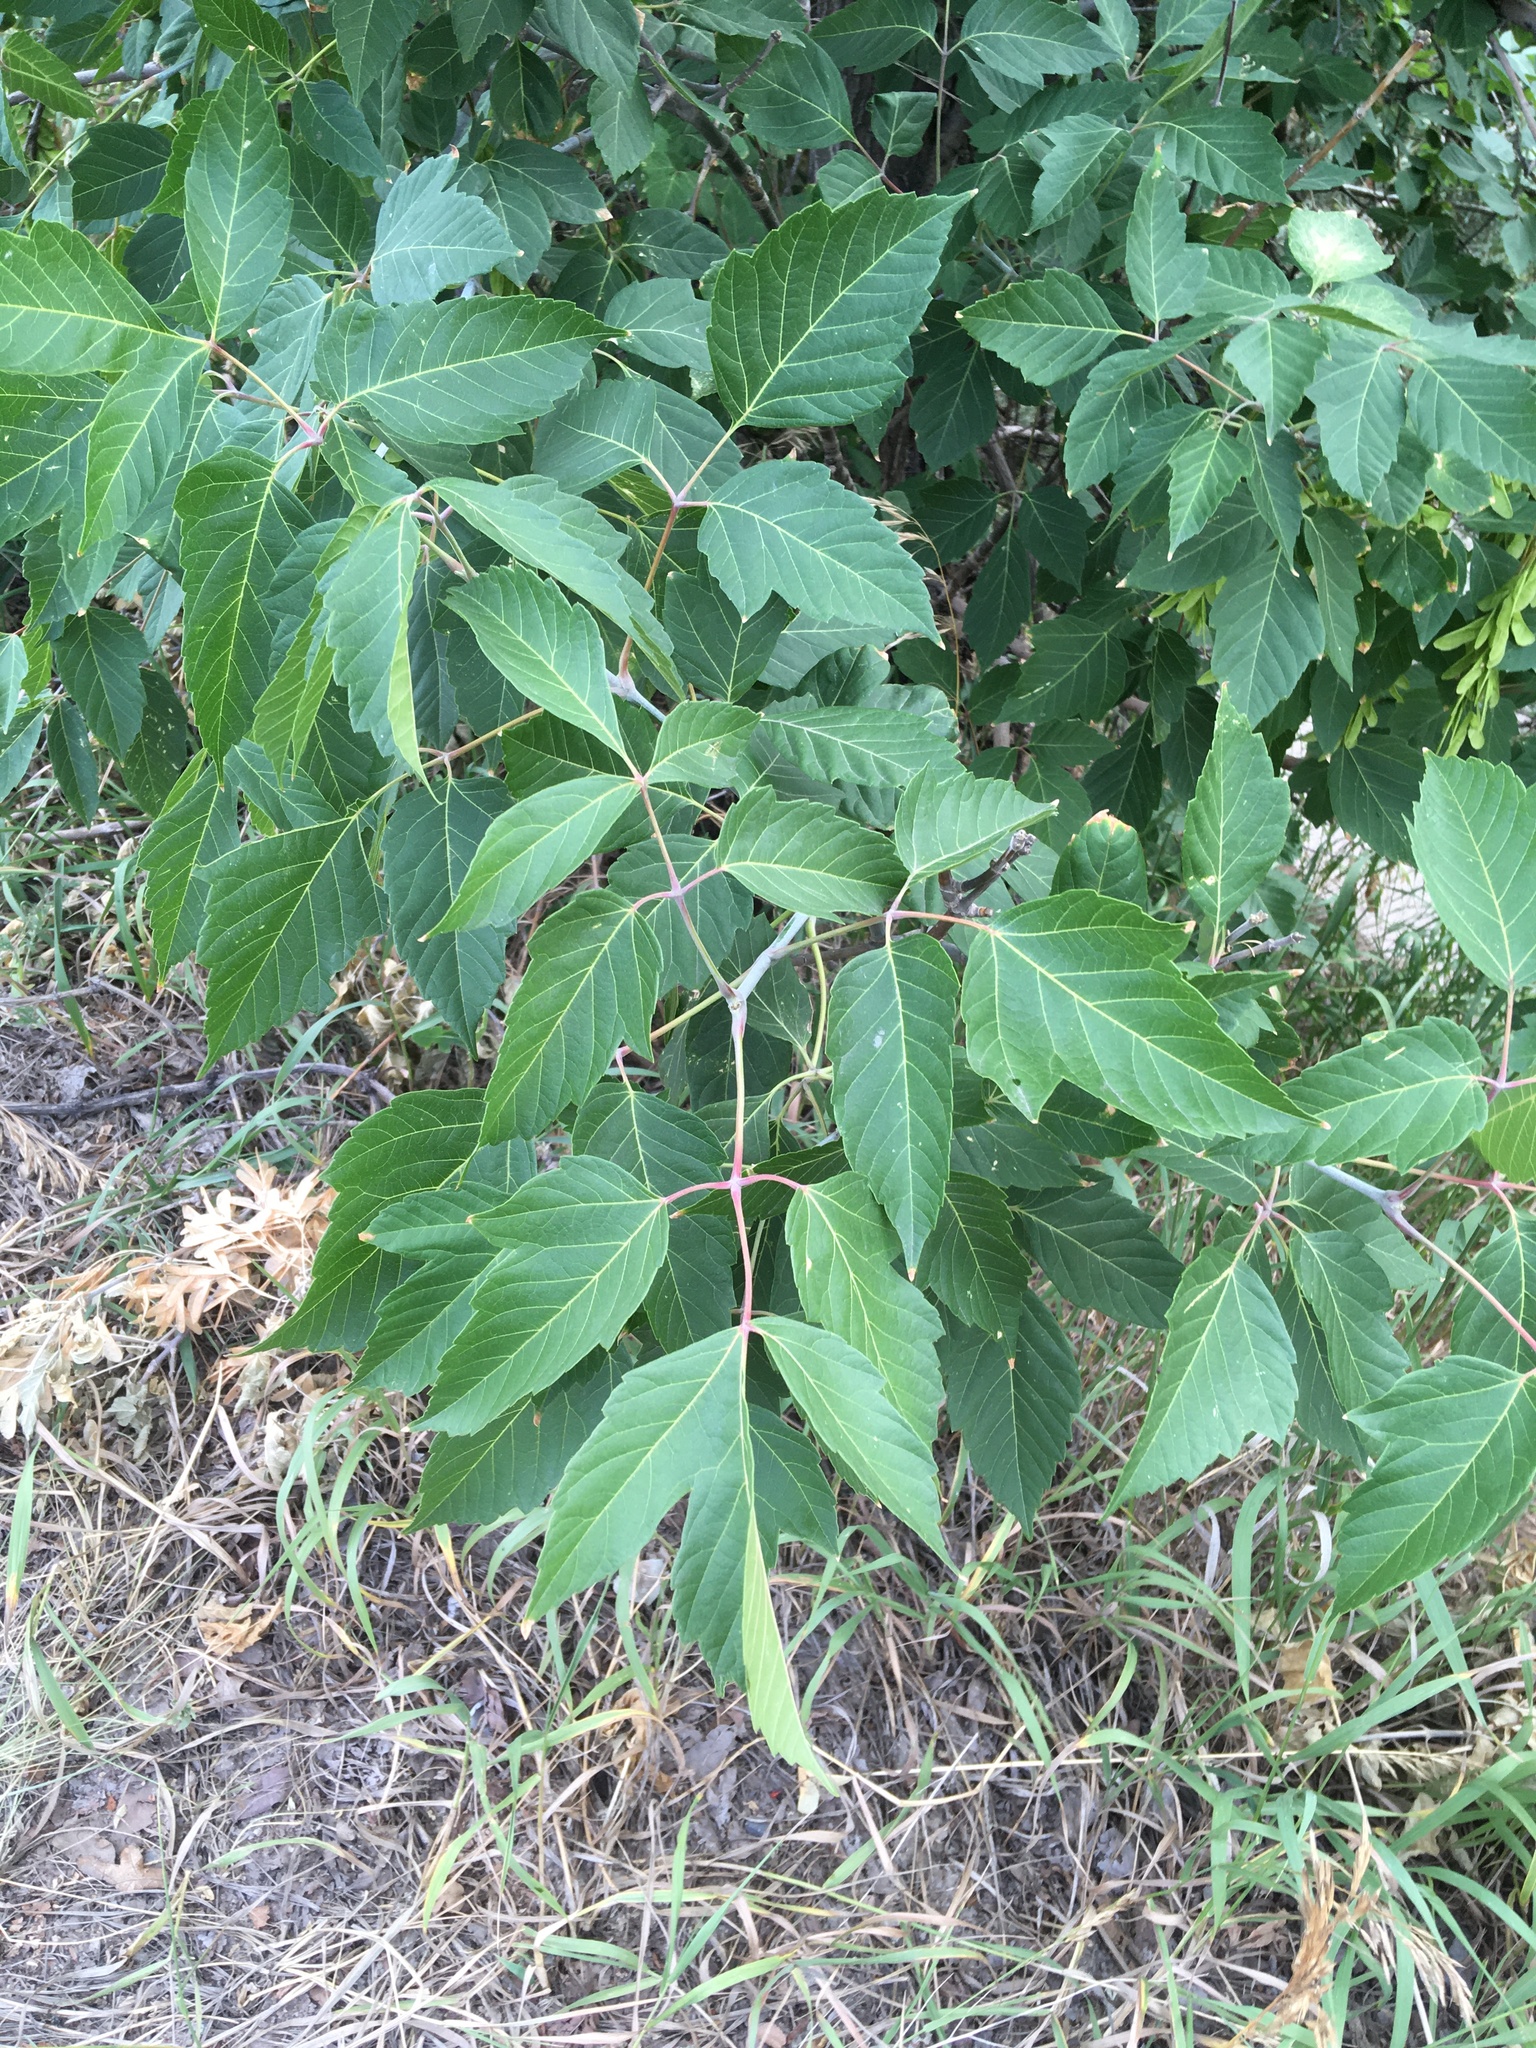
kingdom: Plantae
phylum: Tracheophyta
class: Magnoliopsida
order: Sapindales
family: Sapindaceae
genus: Acer
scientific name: Acer negundo
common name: Ashleaf maple
